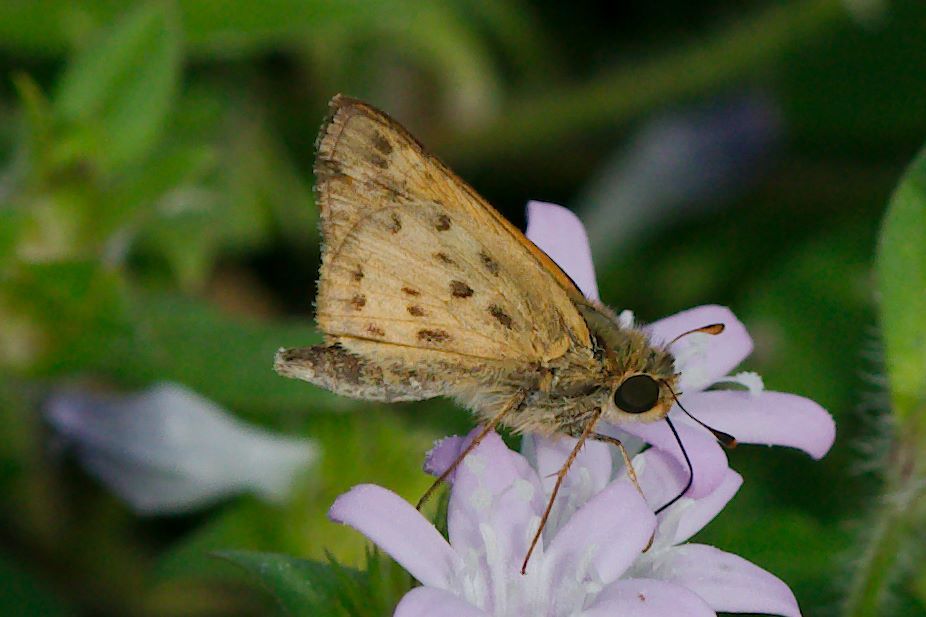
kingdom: Animalia
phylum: Arthropoda
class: Insecta
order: Lepidoptera
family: Hesperiidae
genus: Hylephila
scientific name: Hylephila phyleus
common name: Fiery skipper
